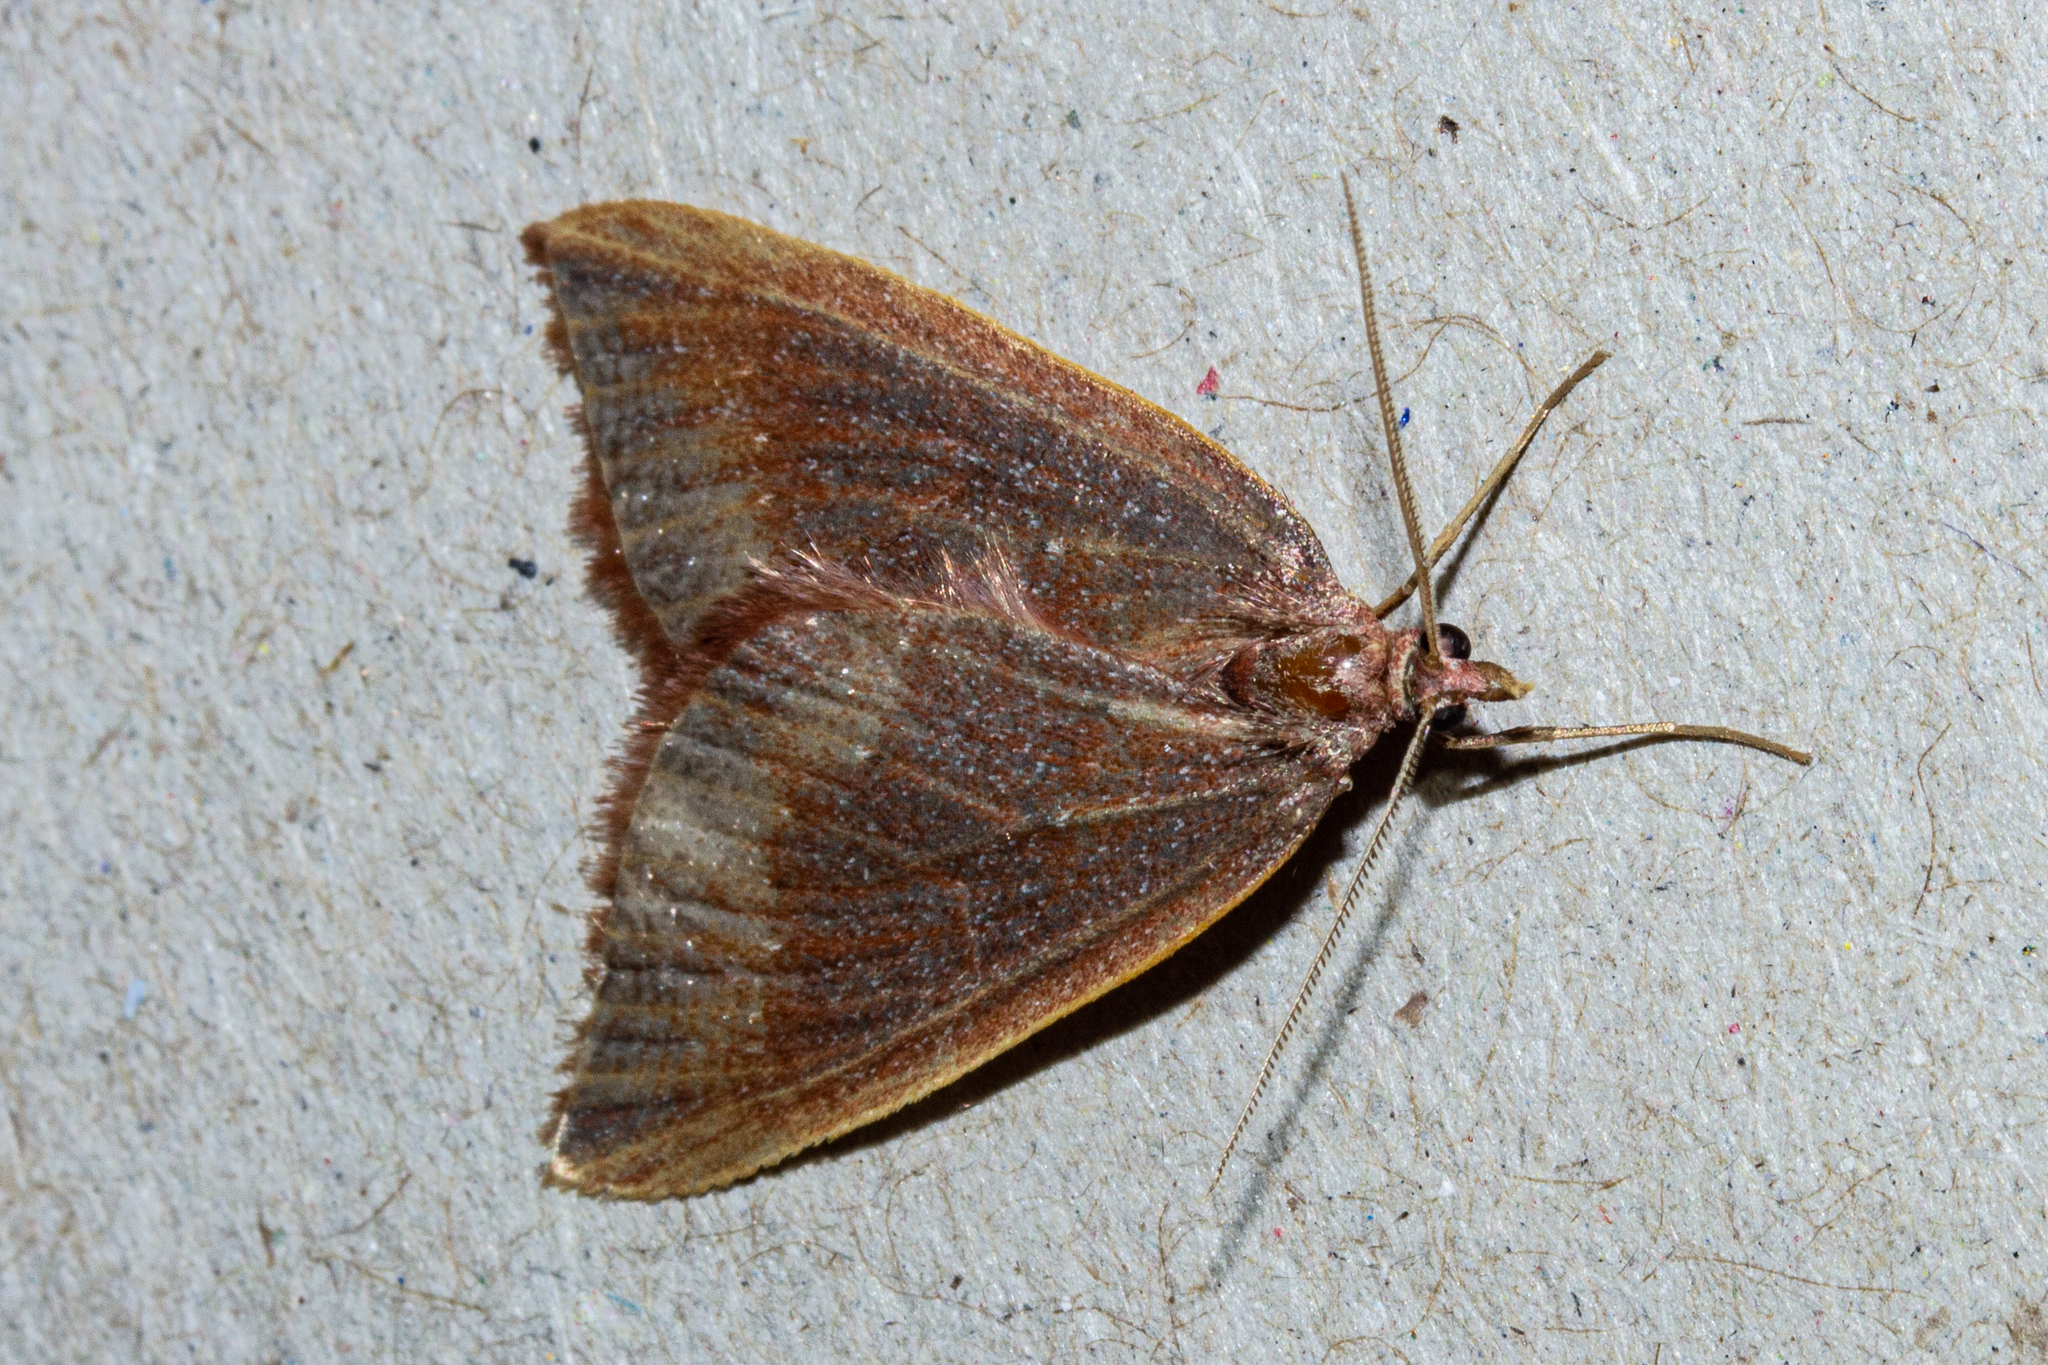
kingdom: Animalia
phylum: Arthropoda
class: Insecta
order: Lepidoptera
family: Geometridae
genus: Xanthorhoe
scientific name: Xanthorhoe occulta
